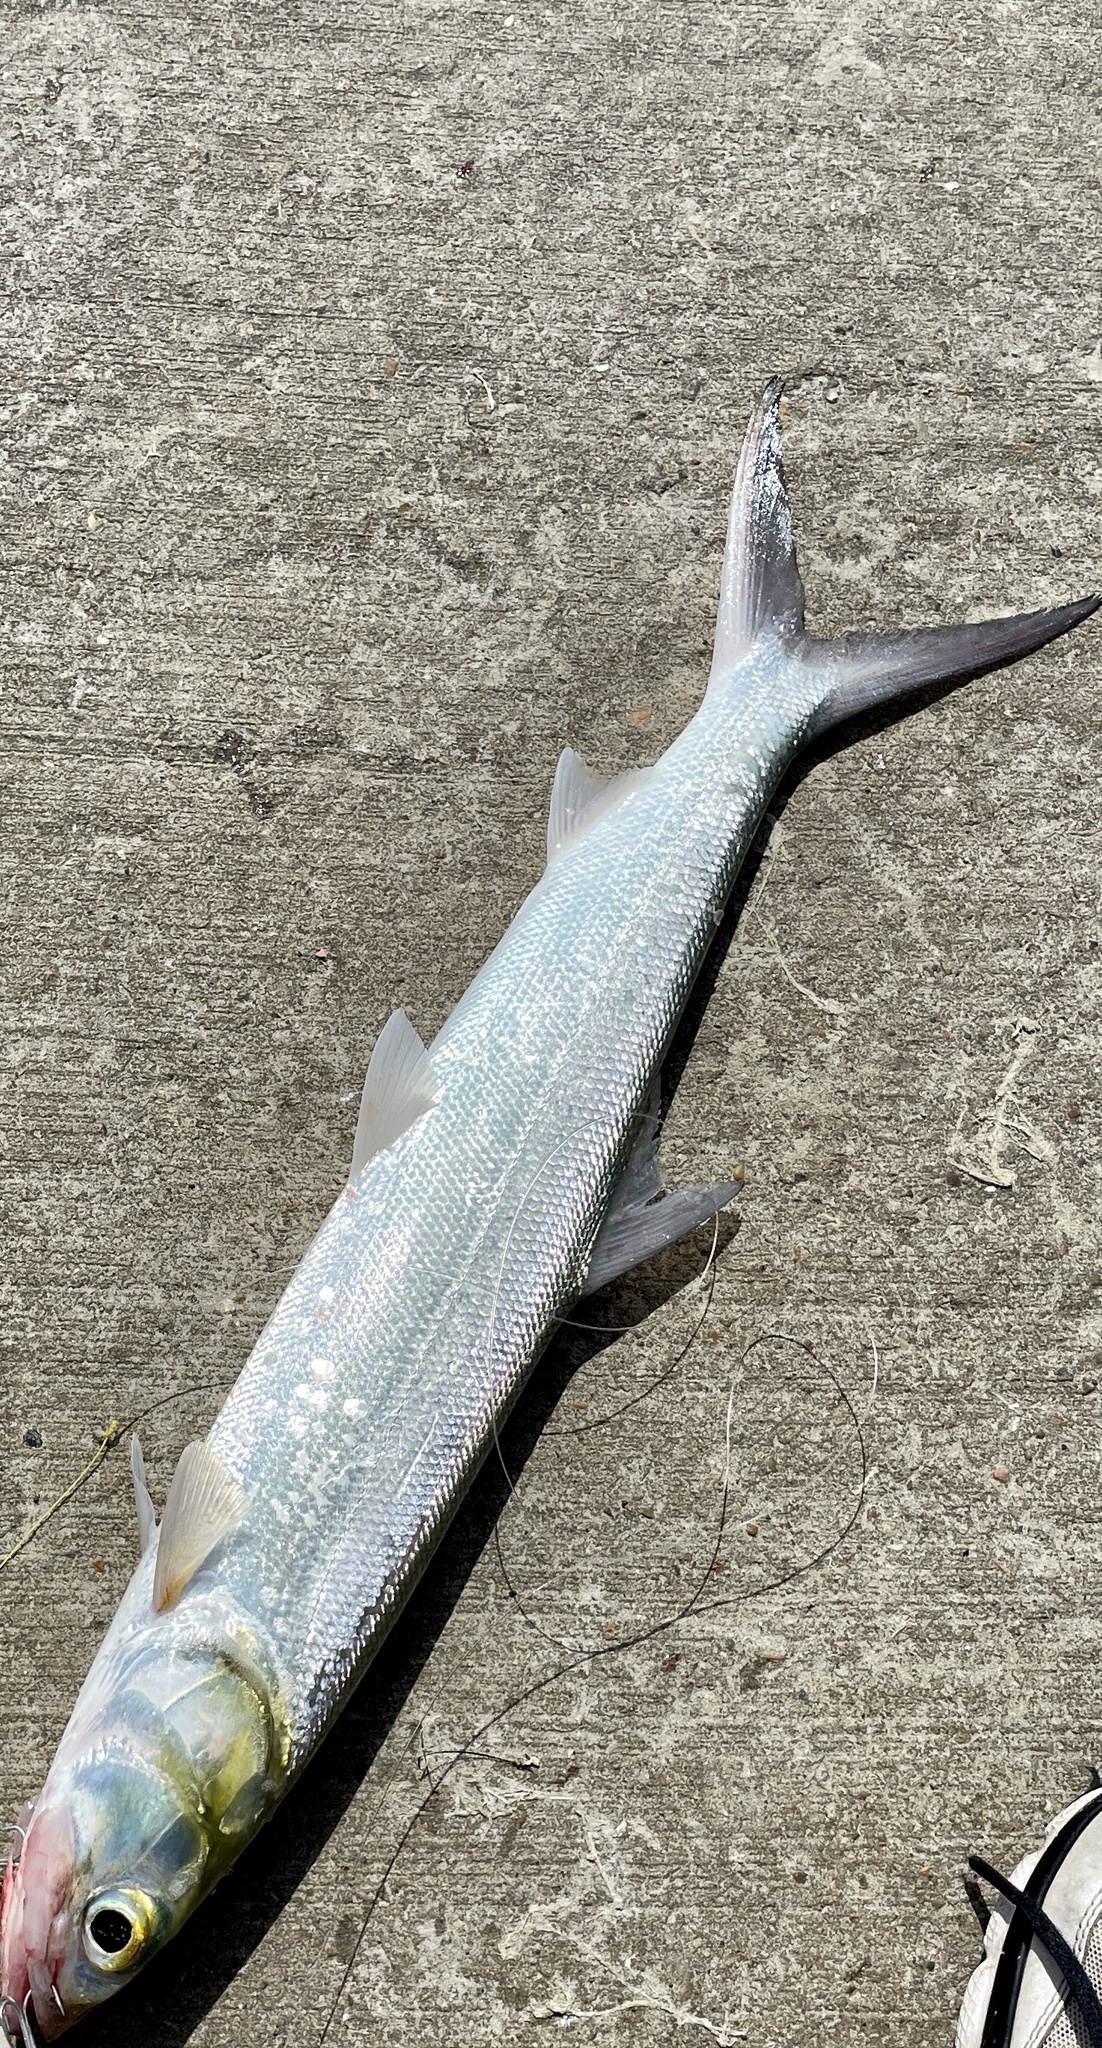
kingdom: Animalia
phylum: Chordata
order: Elopiformes
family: Elopidae
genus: Elops
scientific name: Elops saurus
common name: Ladyfish
